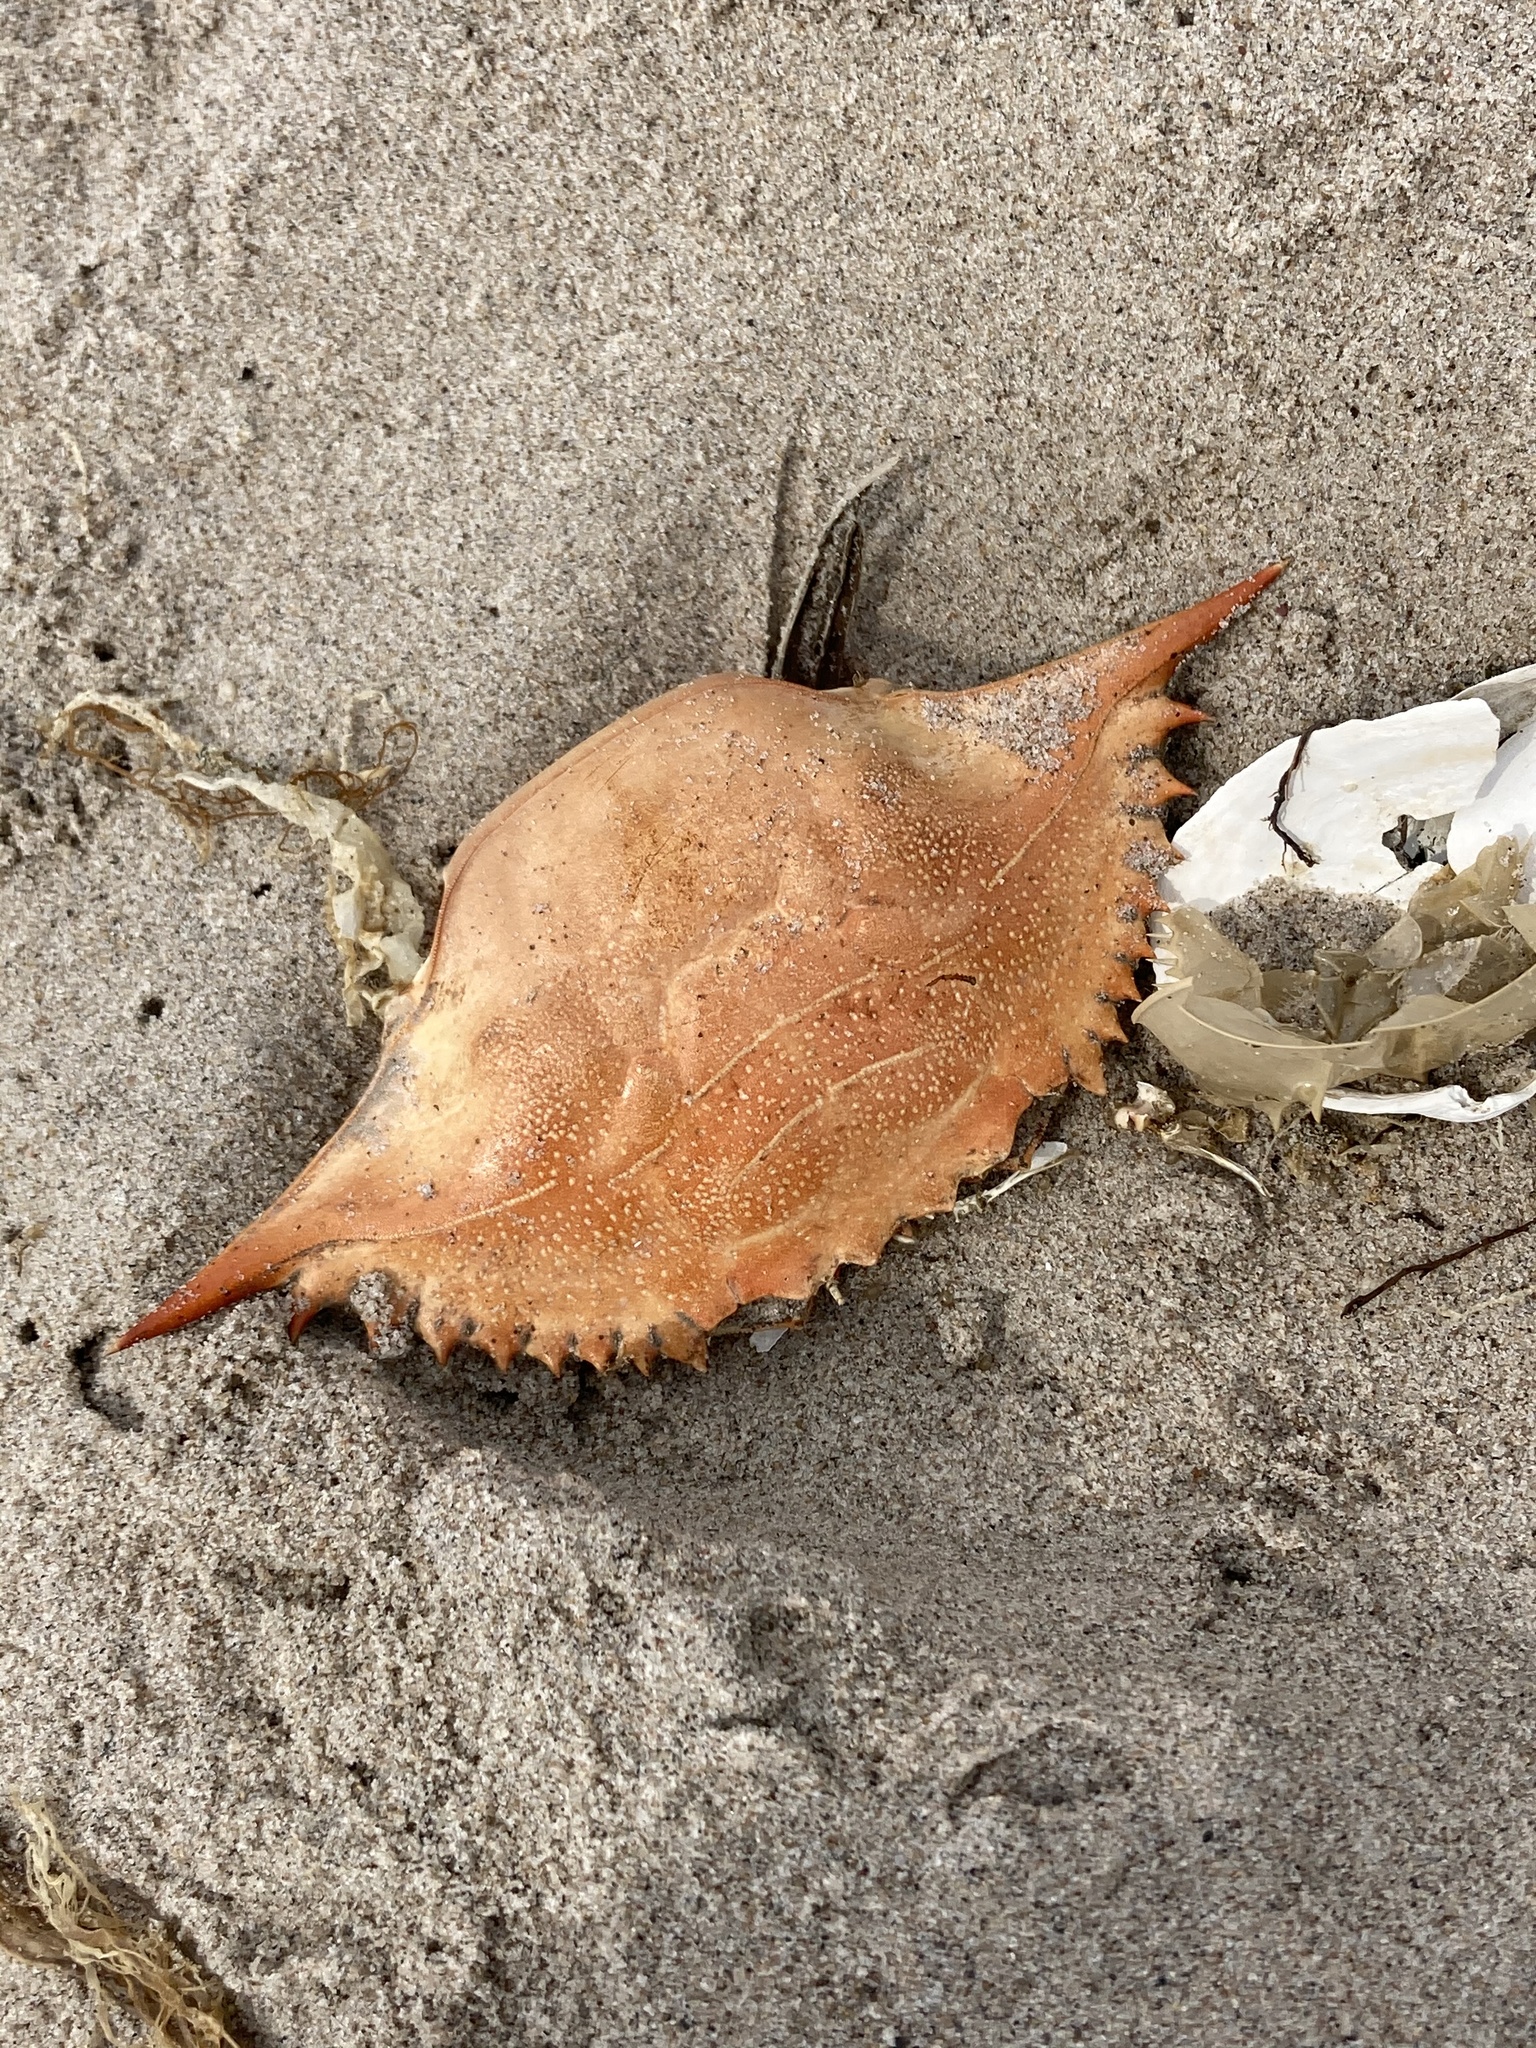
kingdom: Animalia
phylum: Arthropoda
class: Malacostraca
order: Decapoda
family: Portunidae
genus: Callinectes
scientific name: Callinectes sapidus
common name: Blue crab
